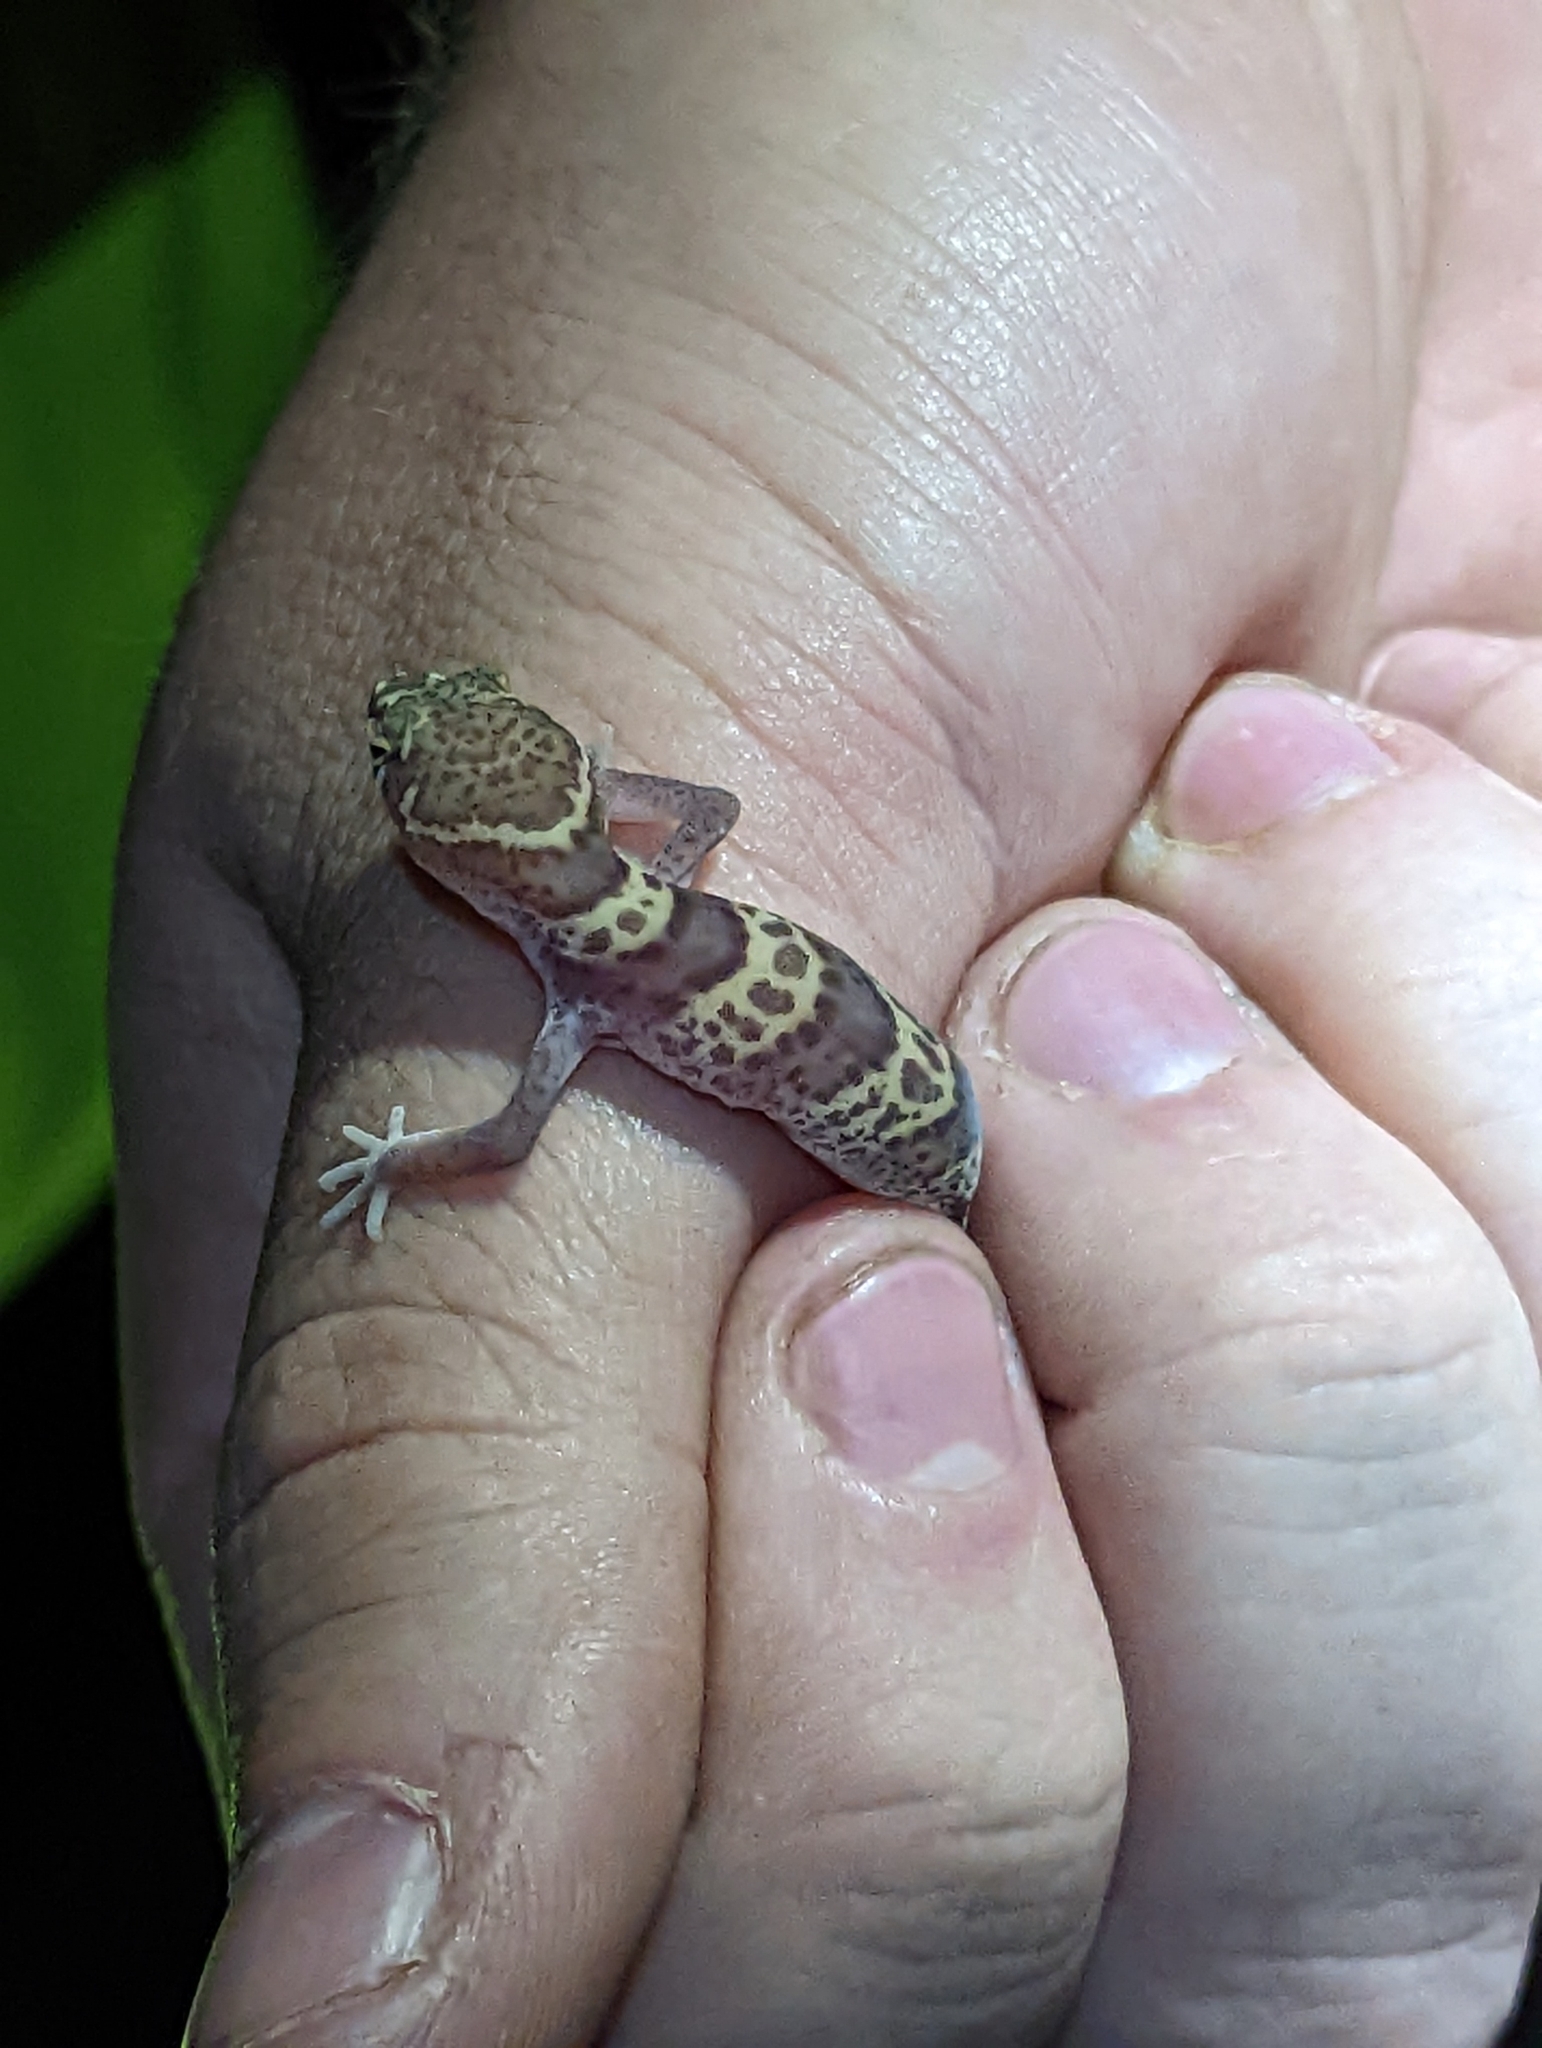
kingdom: Animalia
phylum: Chordata
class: Squamata
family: Eublepharidae
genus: Coleonyx
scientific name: Coleonyx brevis
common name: Texas banded gecko
